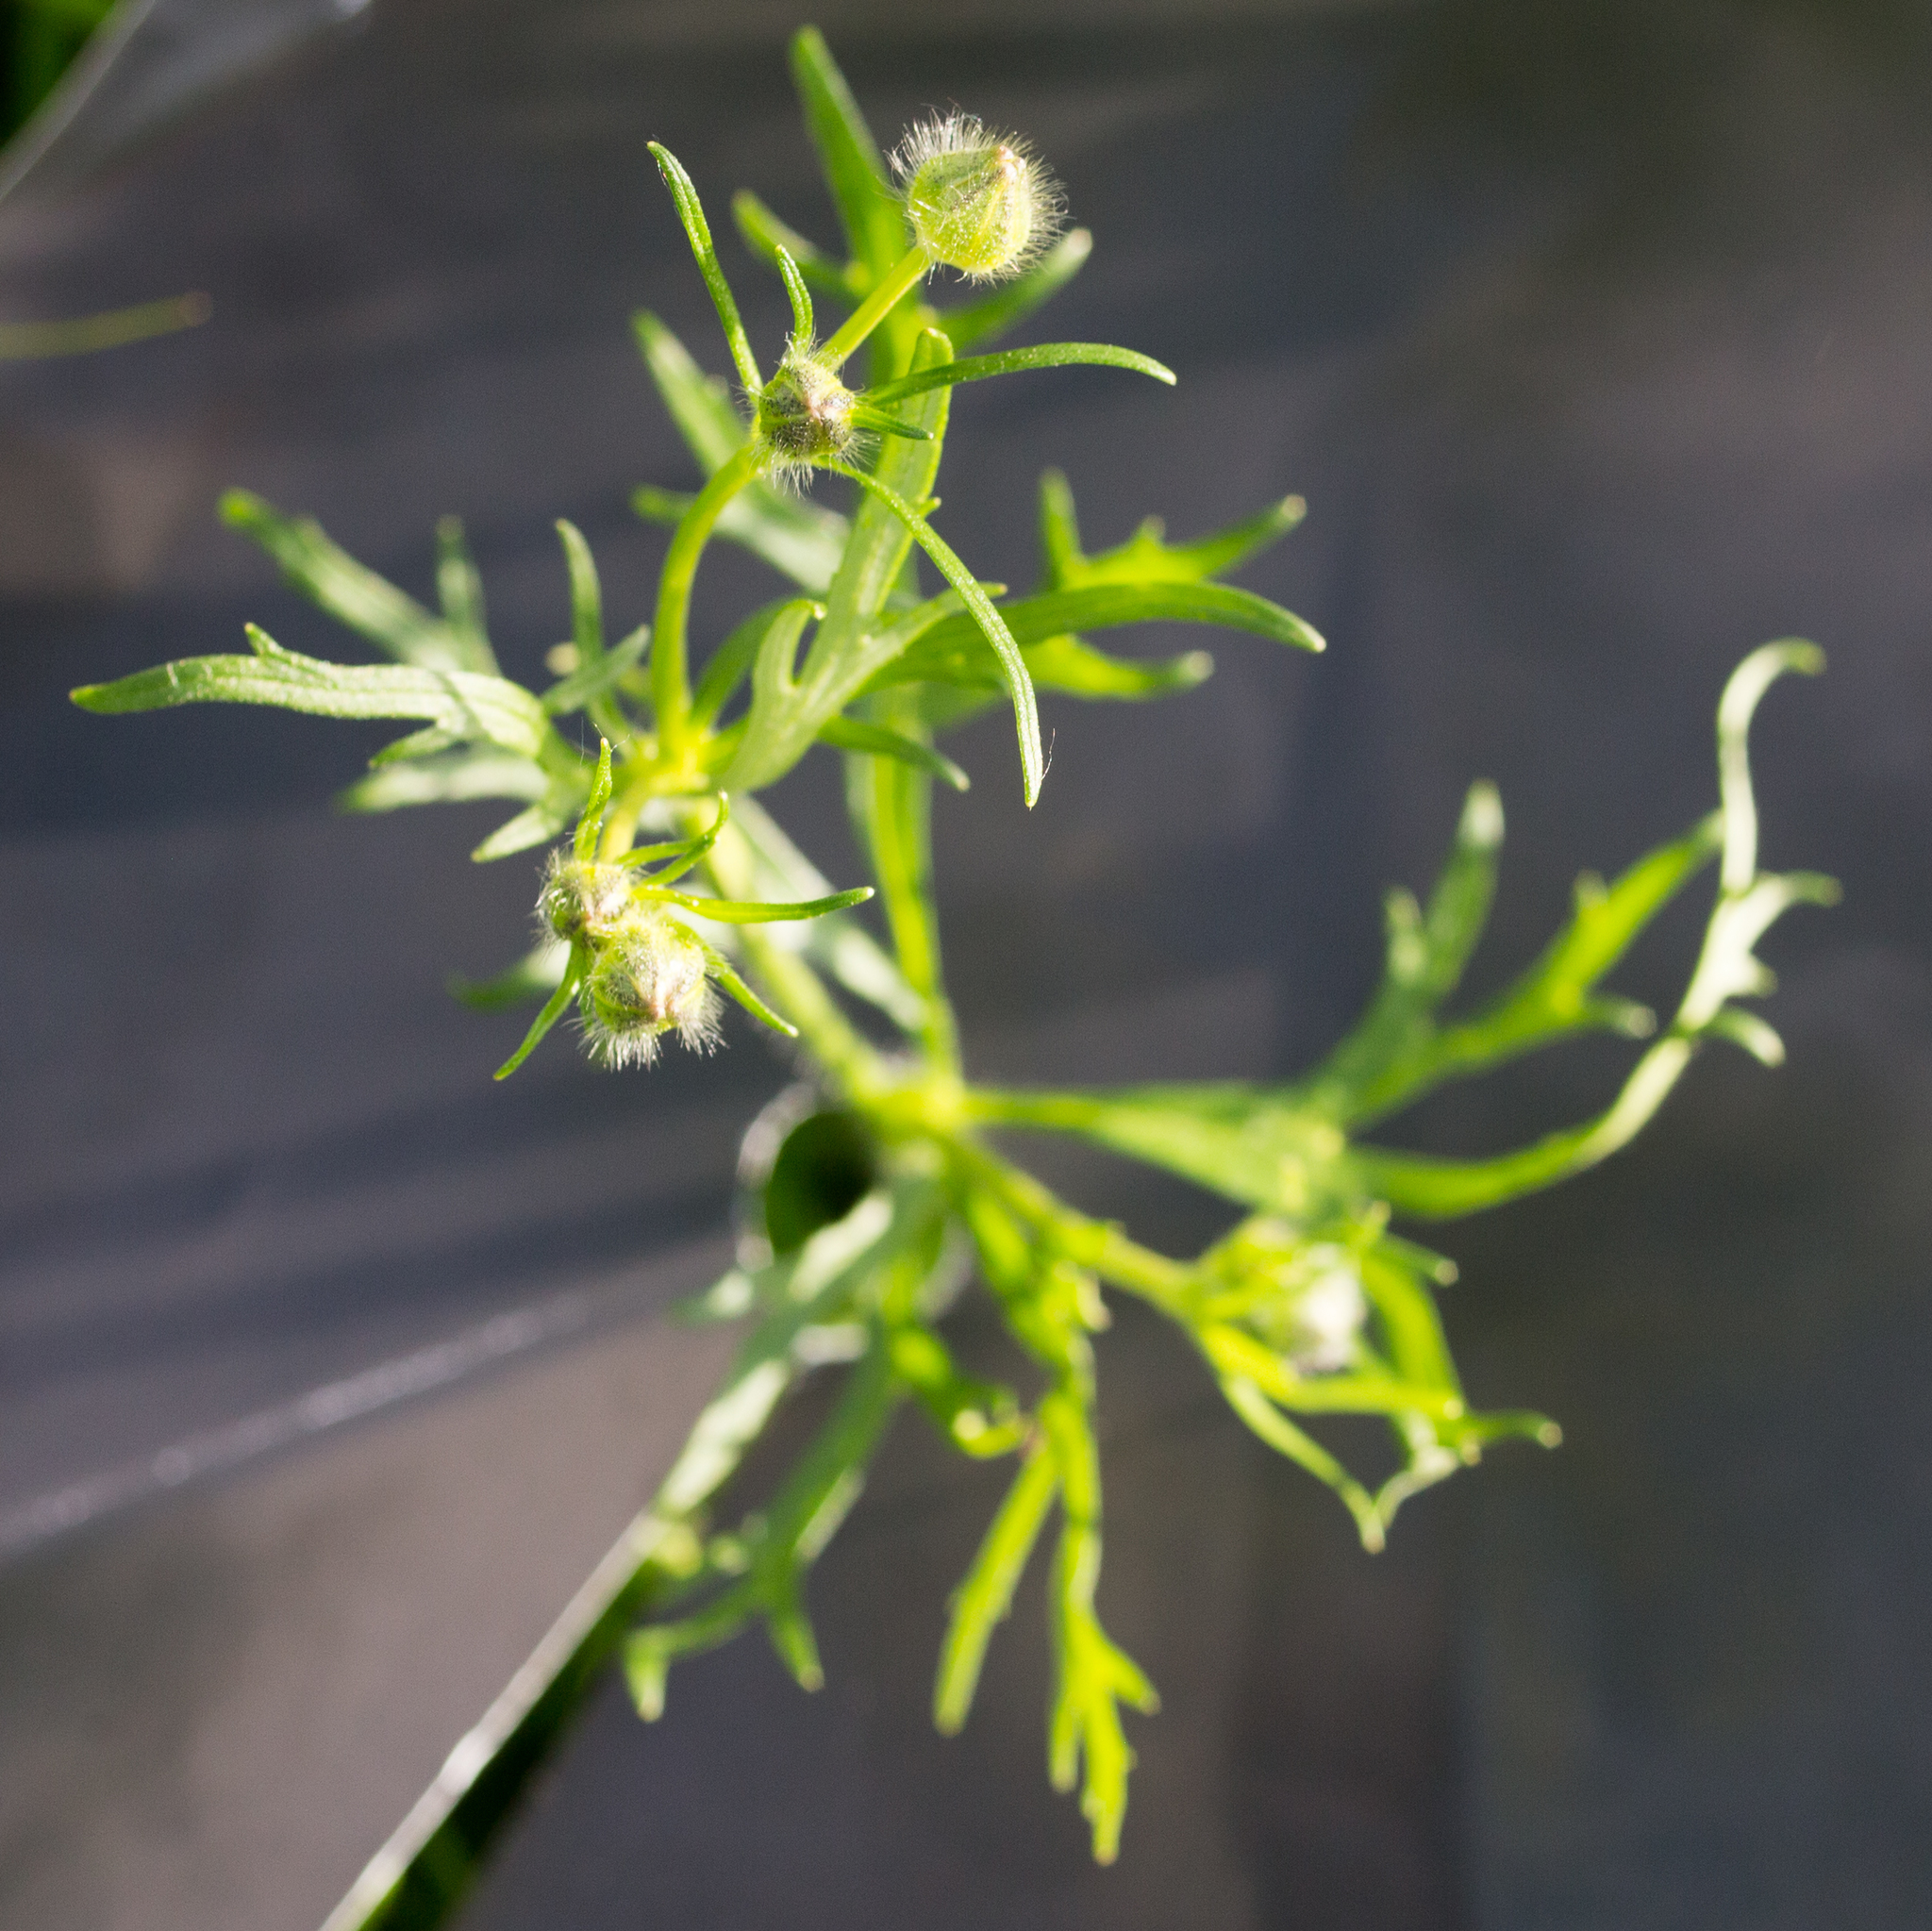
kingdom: Plantae
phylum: Tracheophyta
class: Magnoliopsida
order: Ranunculales
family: Ranunculaceae
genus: Ranunculus
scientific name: Ranunculus polyanthemos
